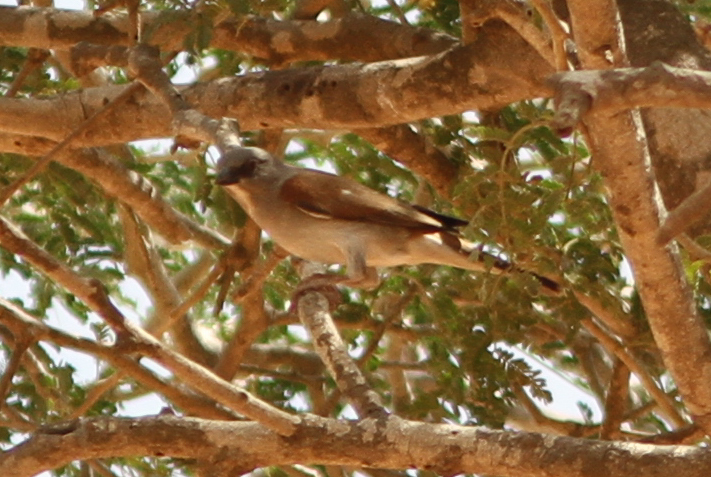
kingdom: Animalia
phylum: Chordata
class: Aves
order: Passeriformes
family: Passeridae
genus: Passer
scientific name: Passer griseus
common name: Northern grey-headed sparrow
